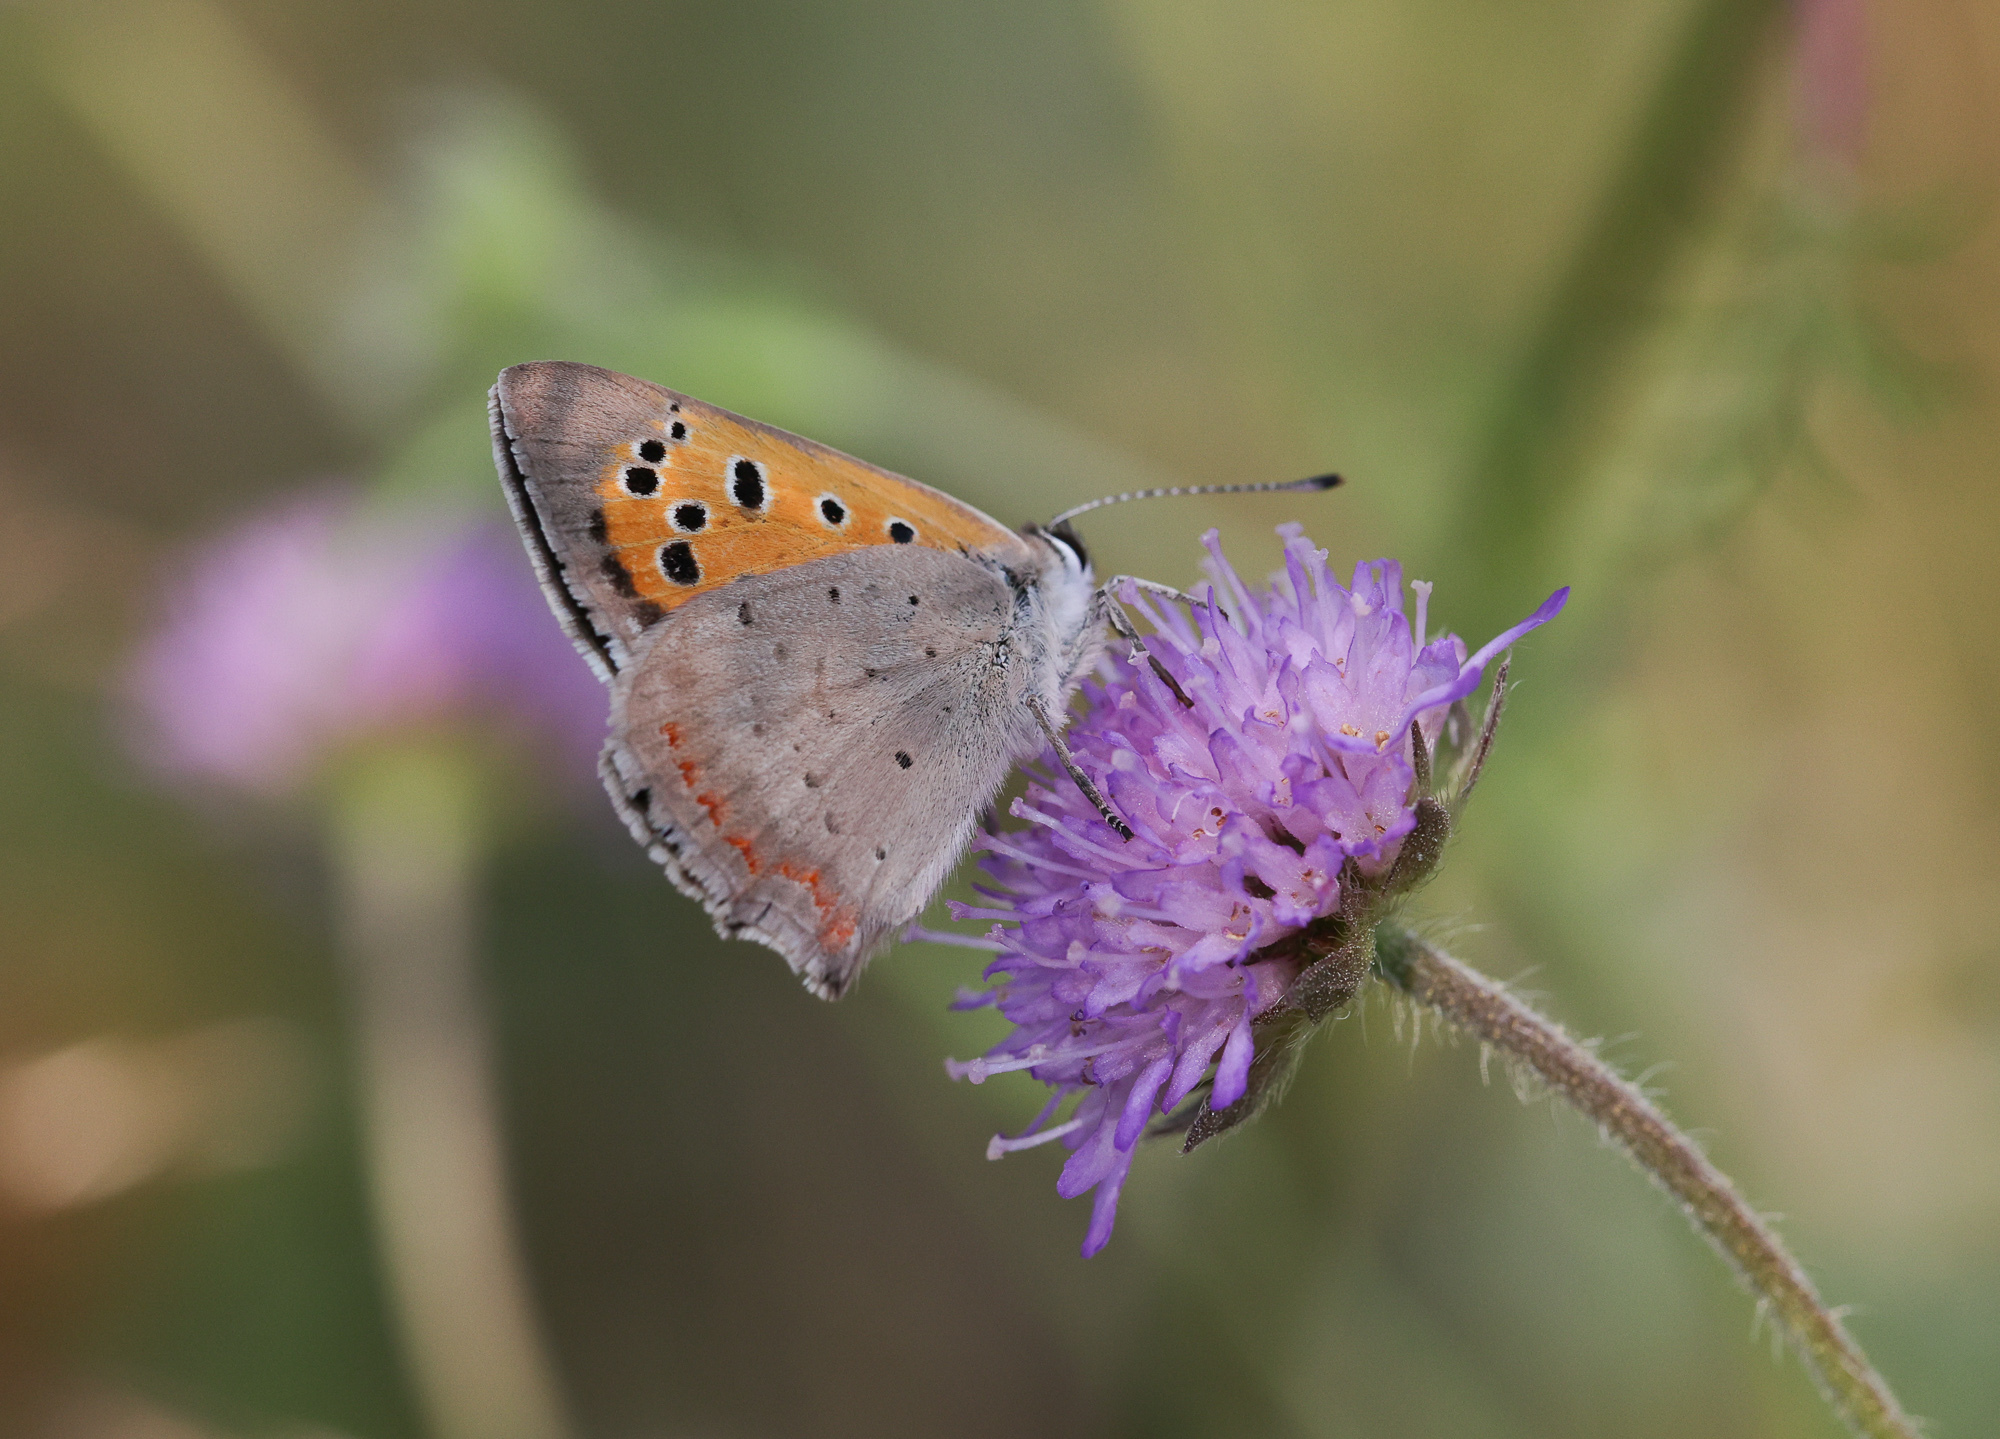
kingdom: Animalia
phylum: Arthropoda
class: Insecta
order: Lepidoptera
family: Lycaenidae
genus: Lycaena
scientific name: Lycaena phlaeas
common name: Small copper
